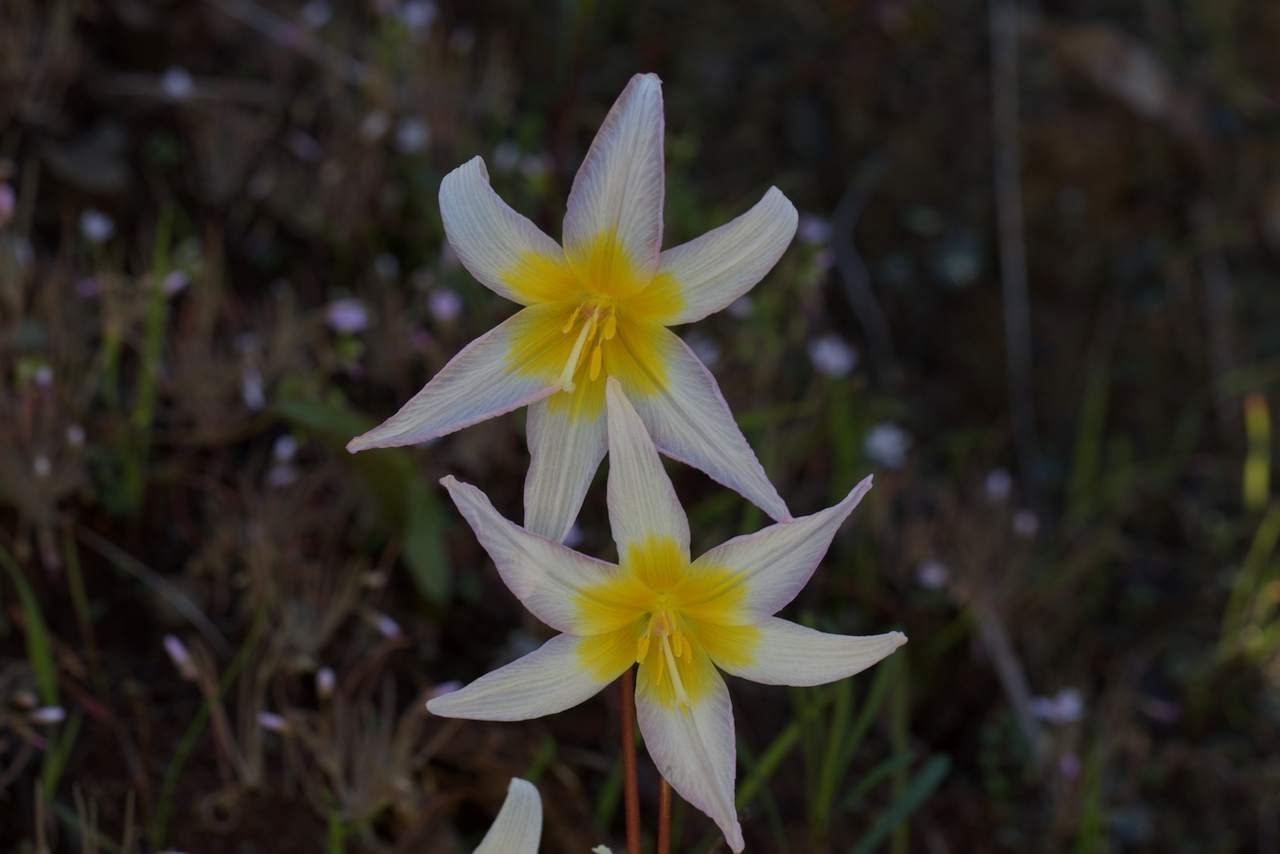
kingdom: Plantae
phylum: Tracheophyta
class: Liliopsida
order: Liliales
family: Liliaceae
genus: Erythronium
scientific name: Erythronium helenae
